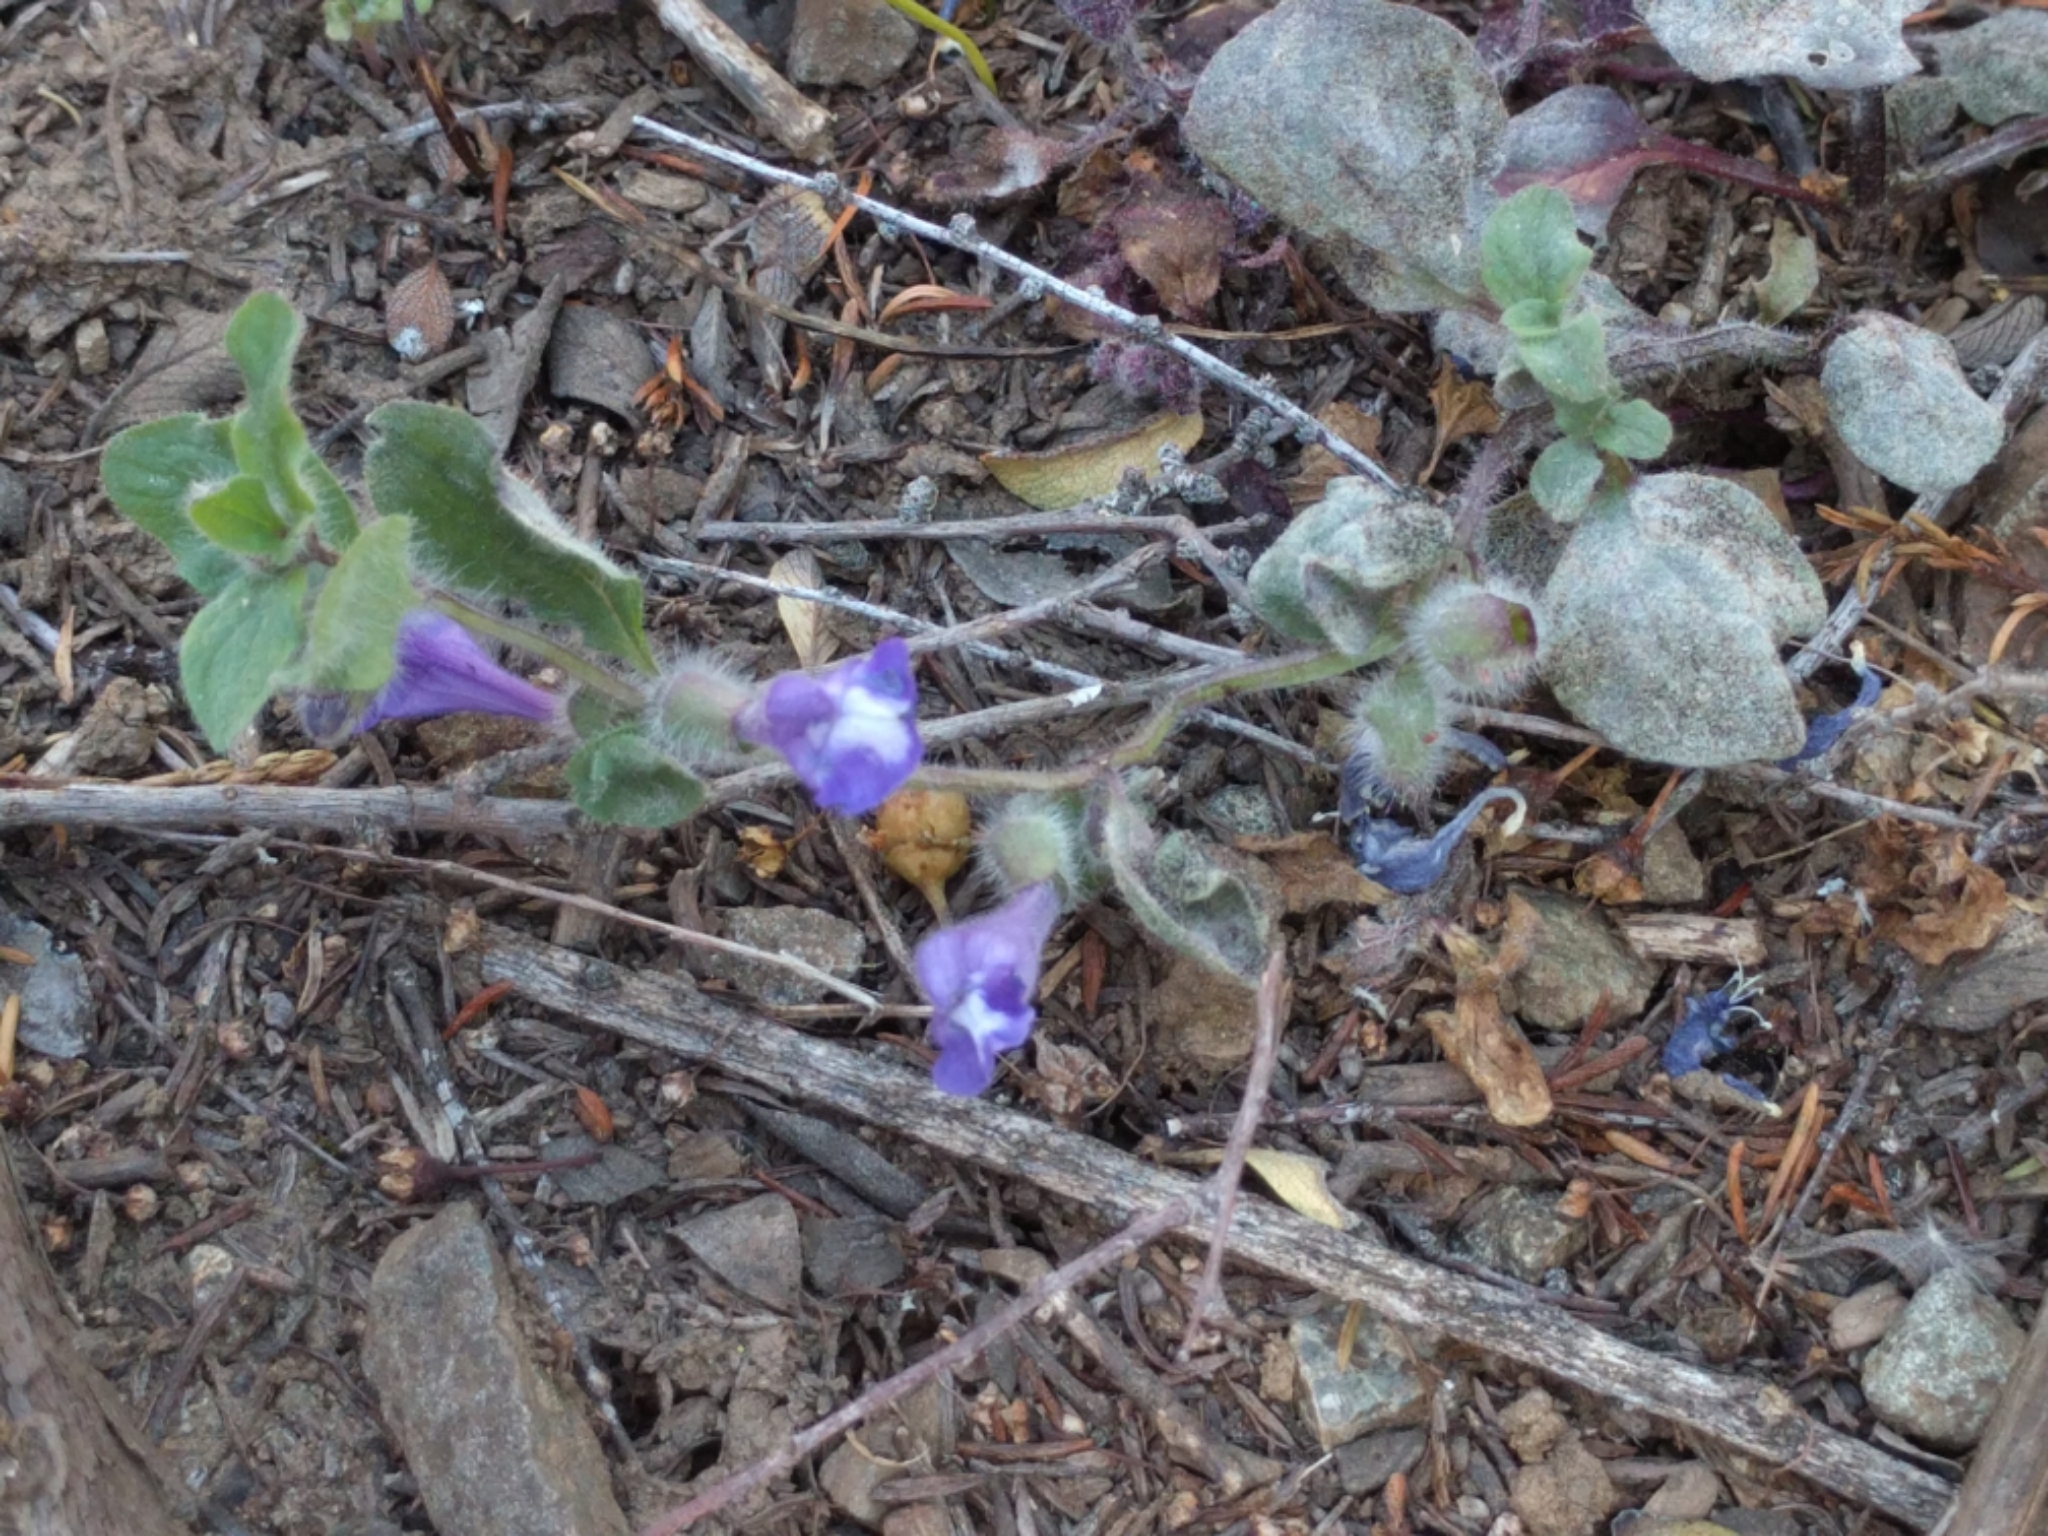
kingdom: Plantae
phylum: Tracheophyta
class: Magnoliopsida
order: Lamiales
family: Lamiaceae
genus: Scutellaria
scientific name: Scutellaria tuberosa
